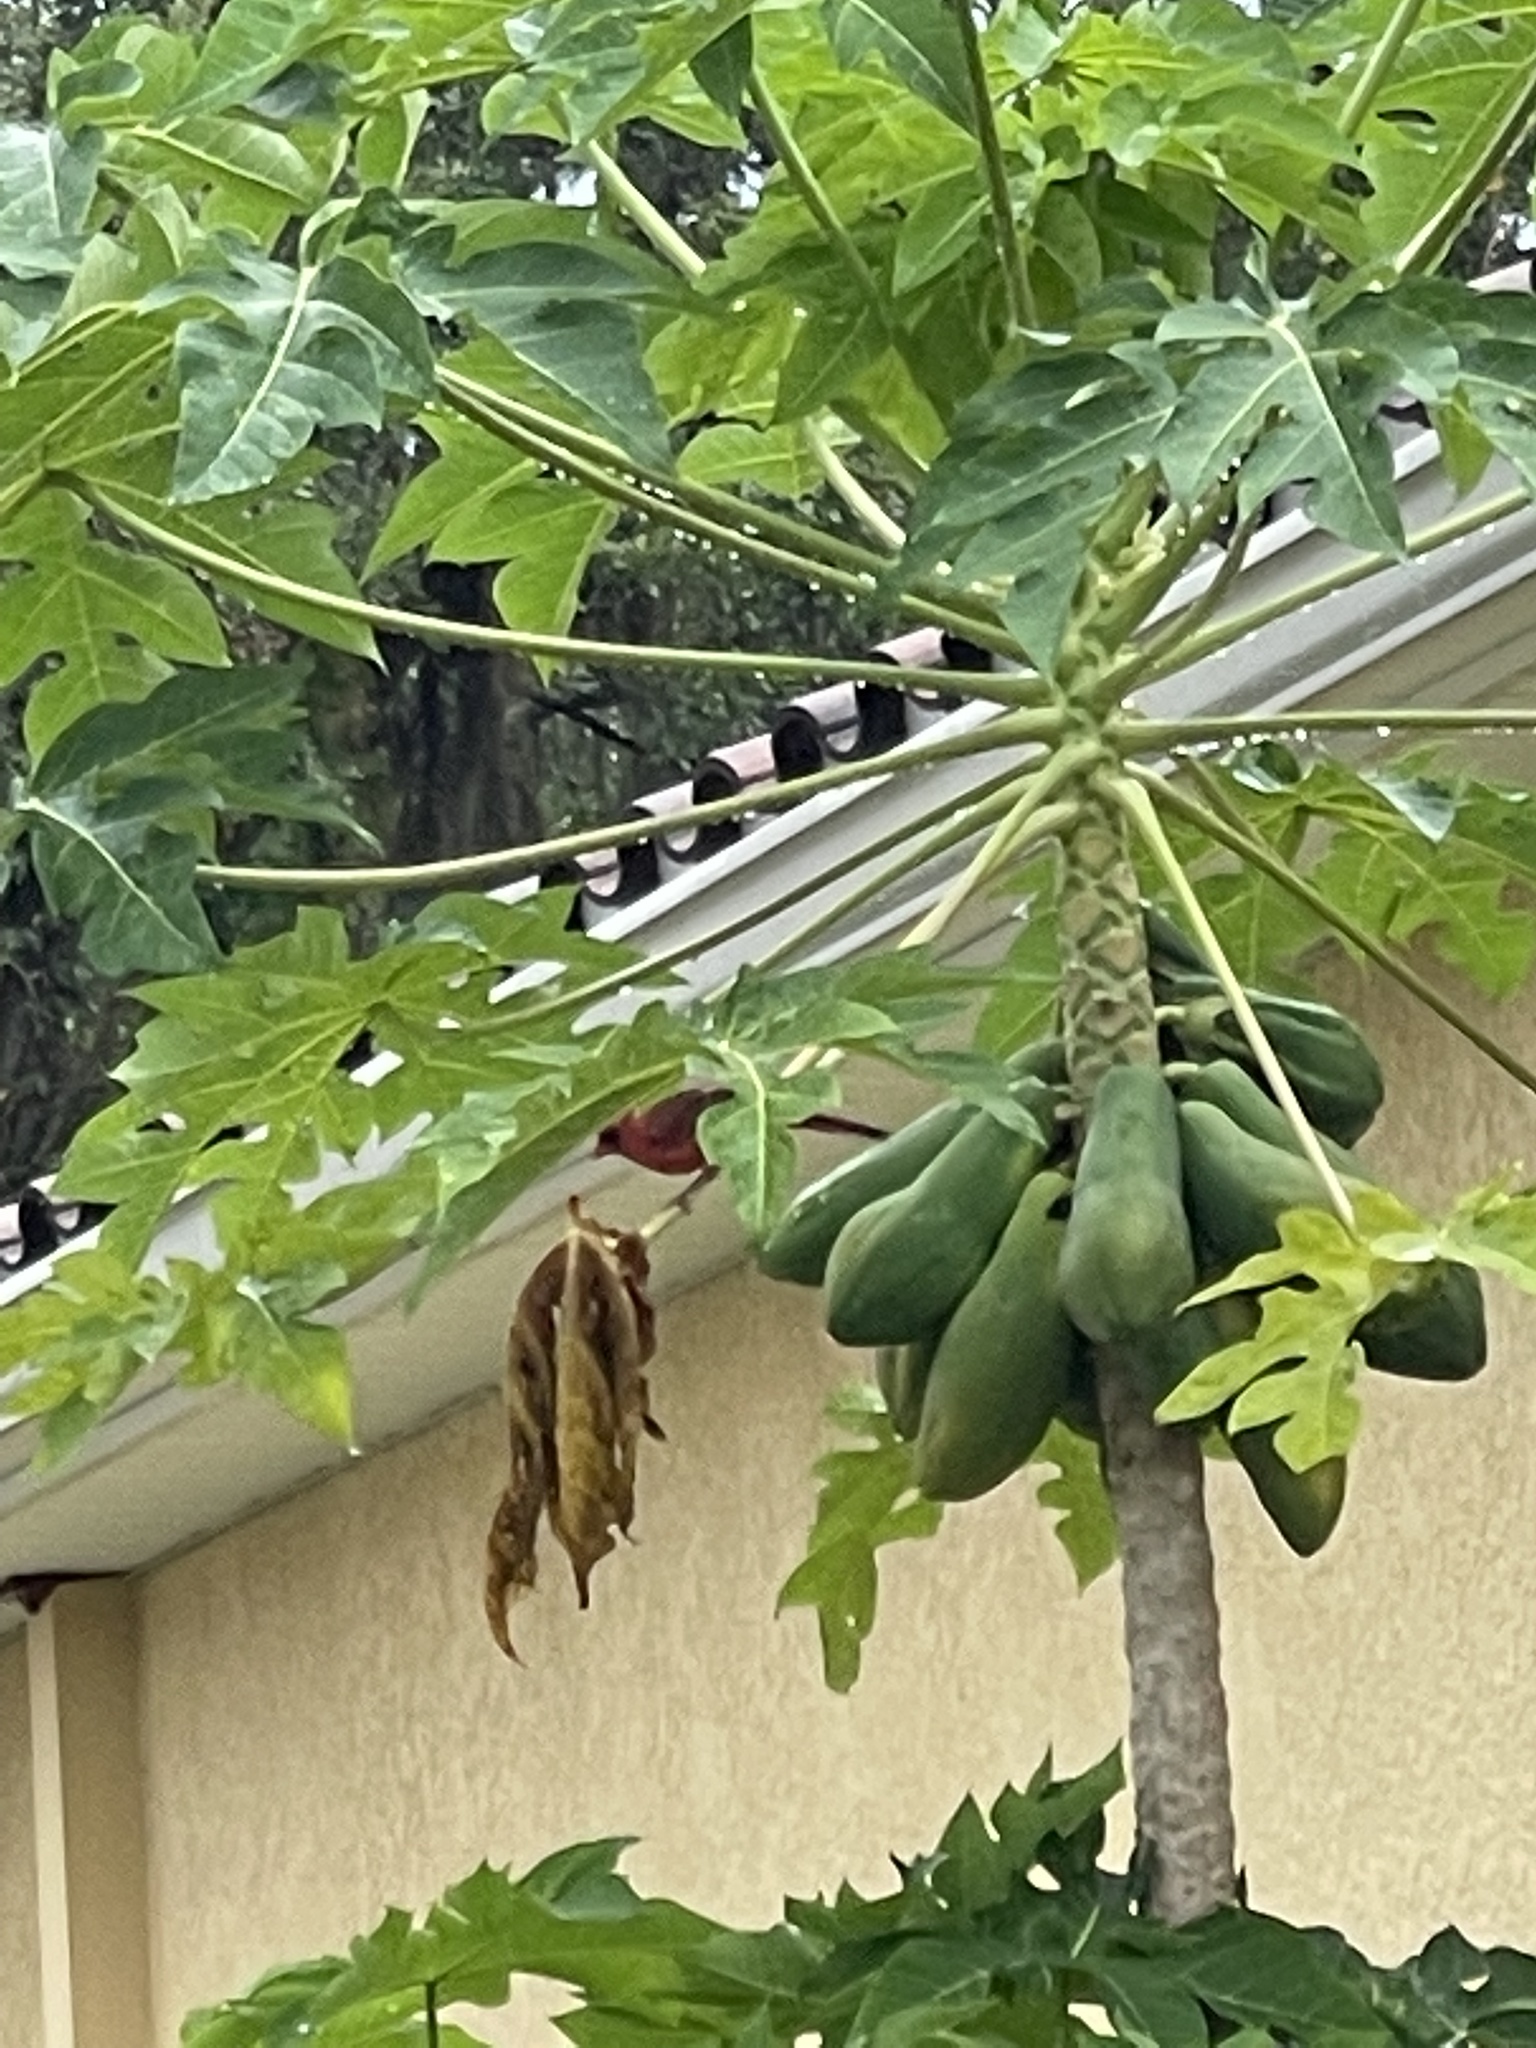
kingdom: Animalia
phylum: Chordata
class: Aves
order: Passeriformes
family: Cardinalidae
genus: Cardinalis
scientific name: Cardinalis cardinalis
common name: Northern cardinal
